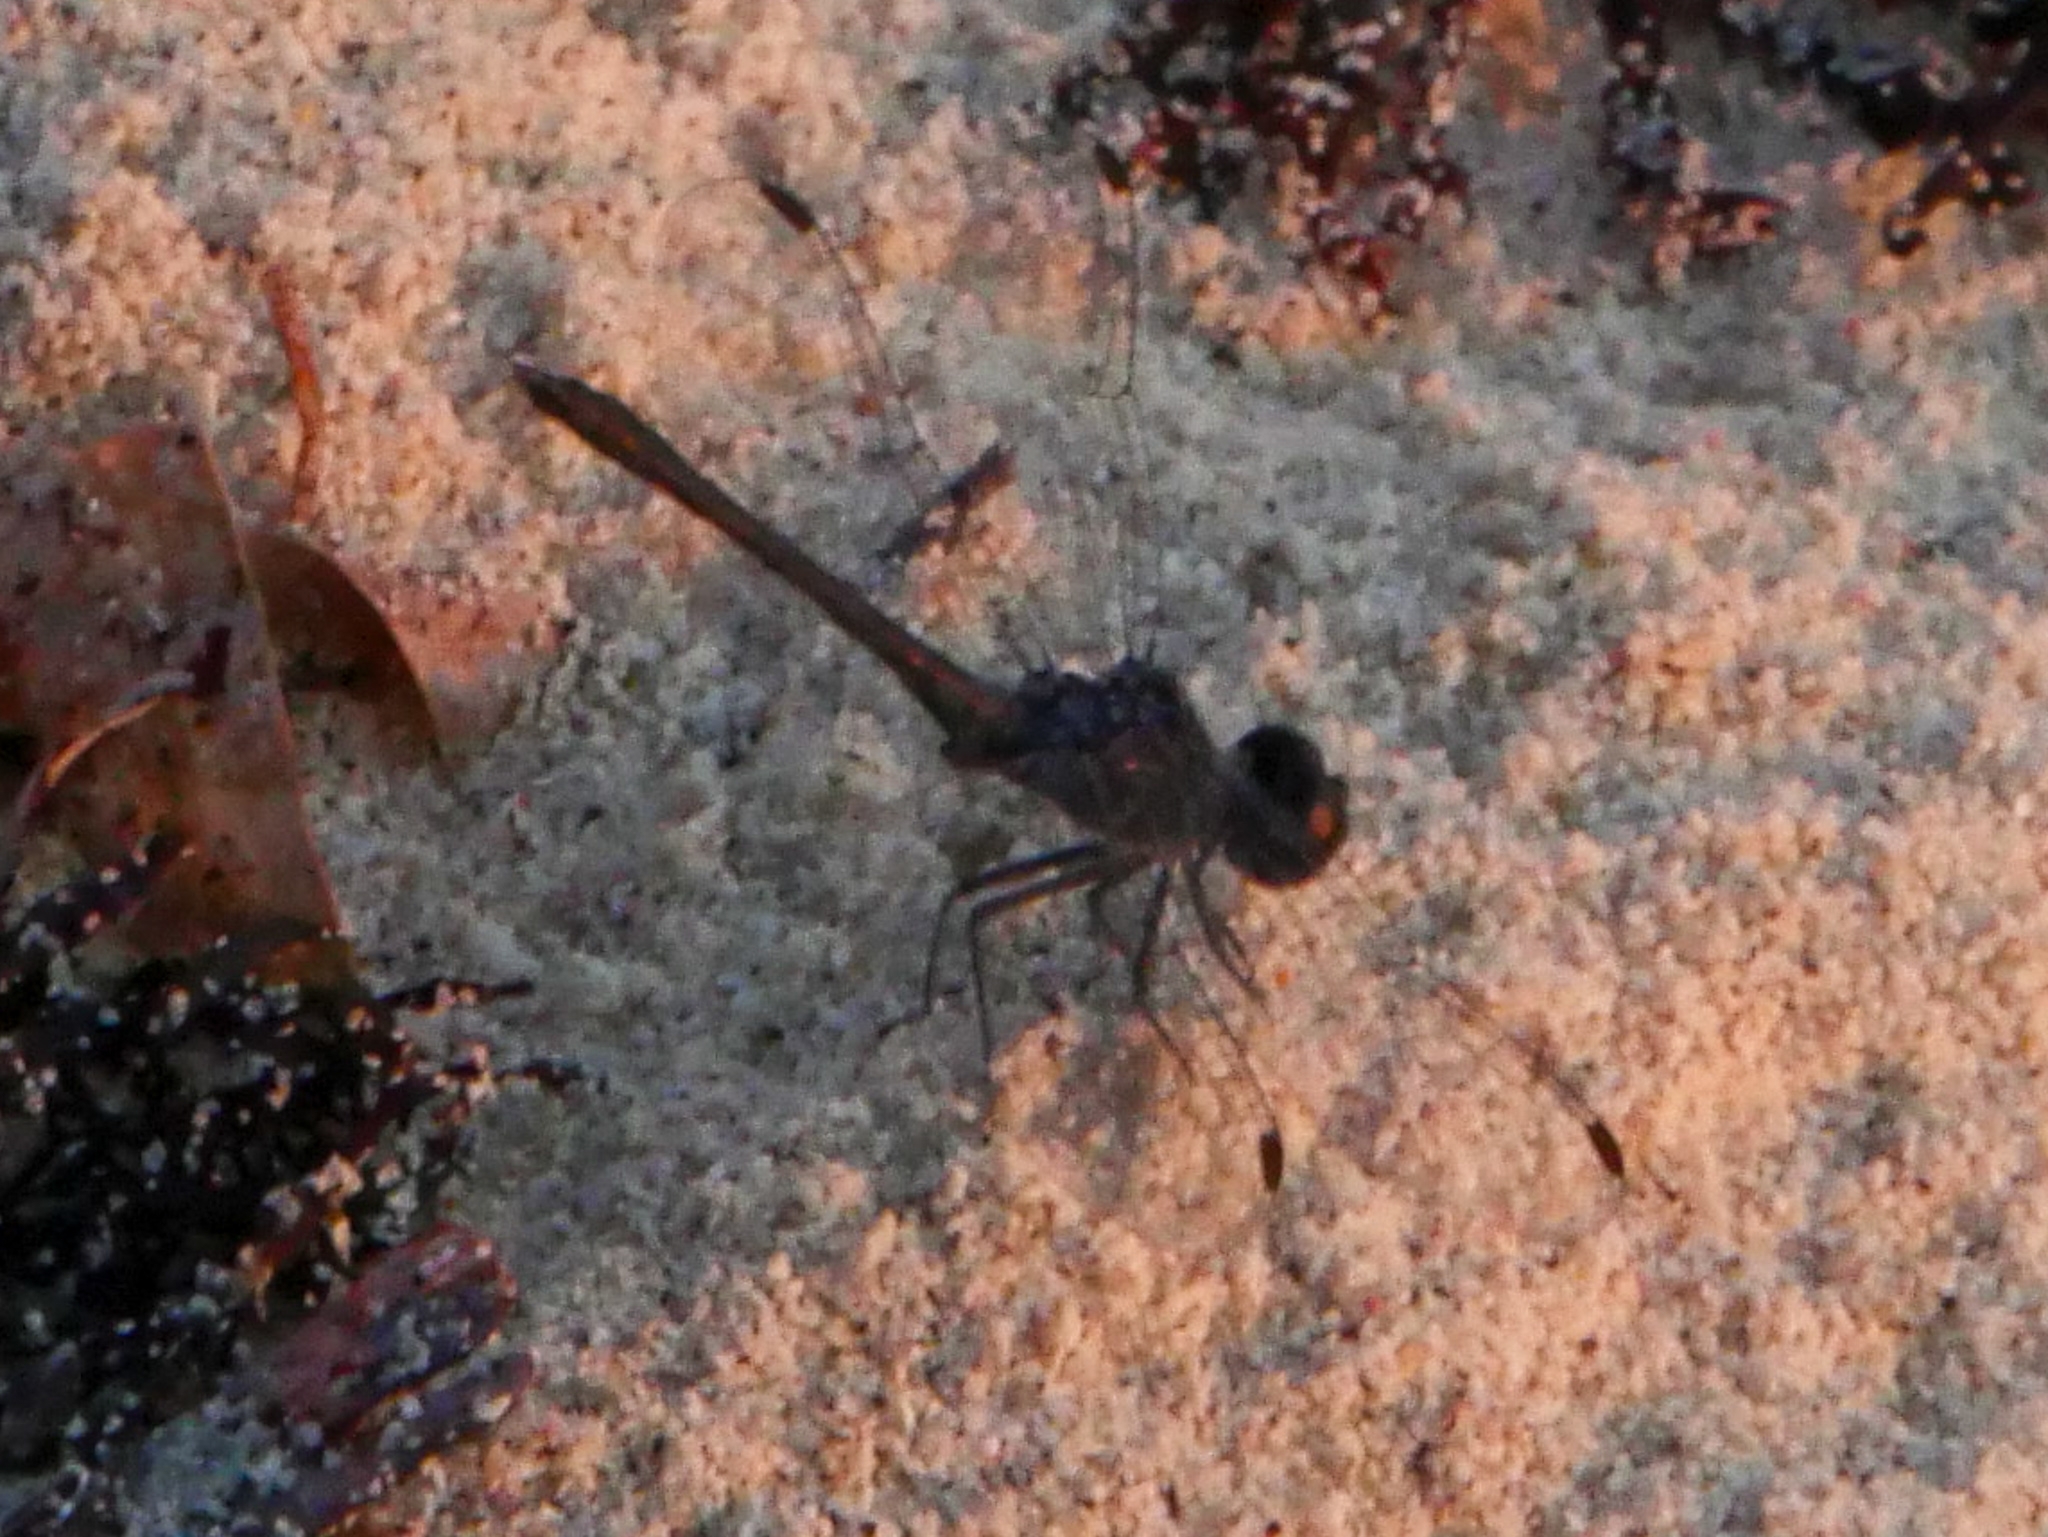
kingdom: Animalia
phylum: Arthropoda
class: Insecta
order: Odonata
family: Libellulidae
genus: Erythrodiplax
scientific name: Erythrodiplax berenice
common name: Seaside dragonlet
